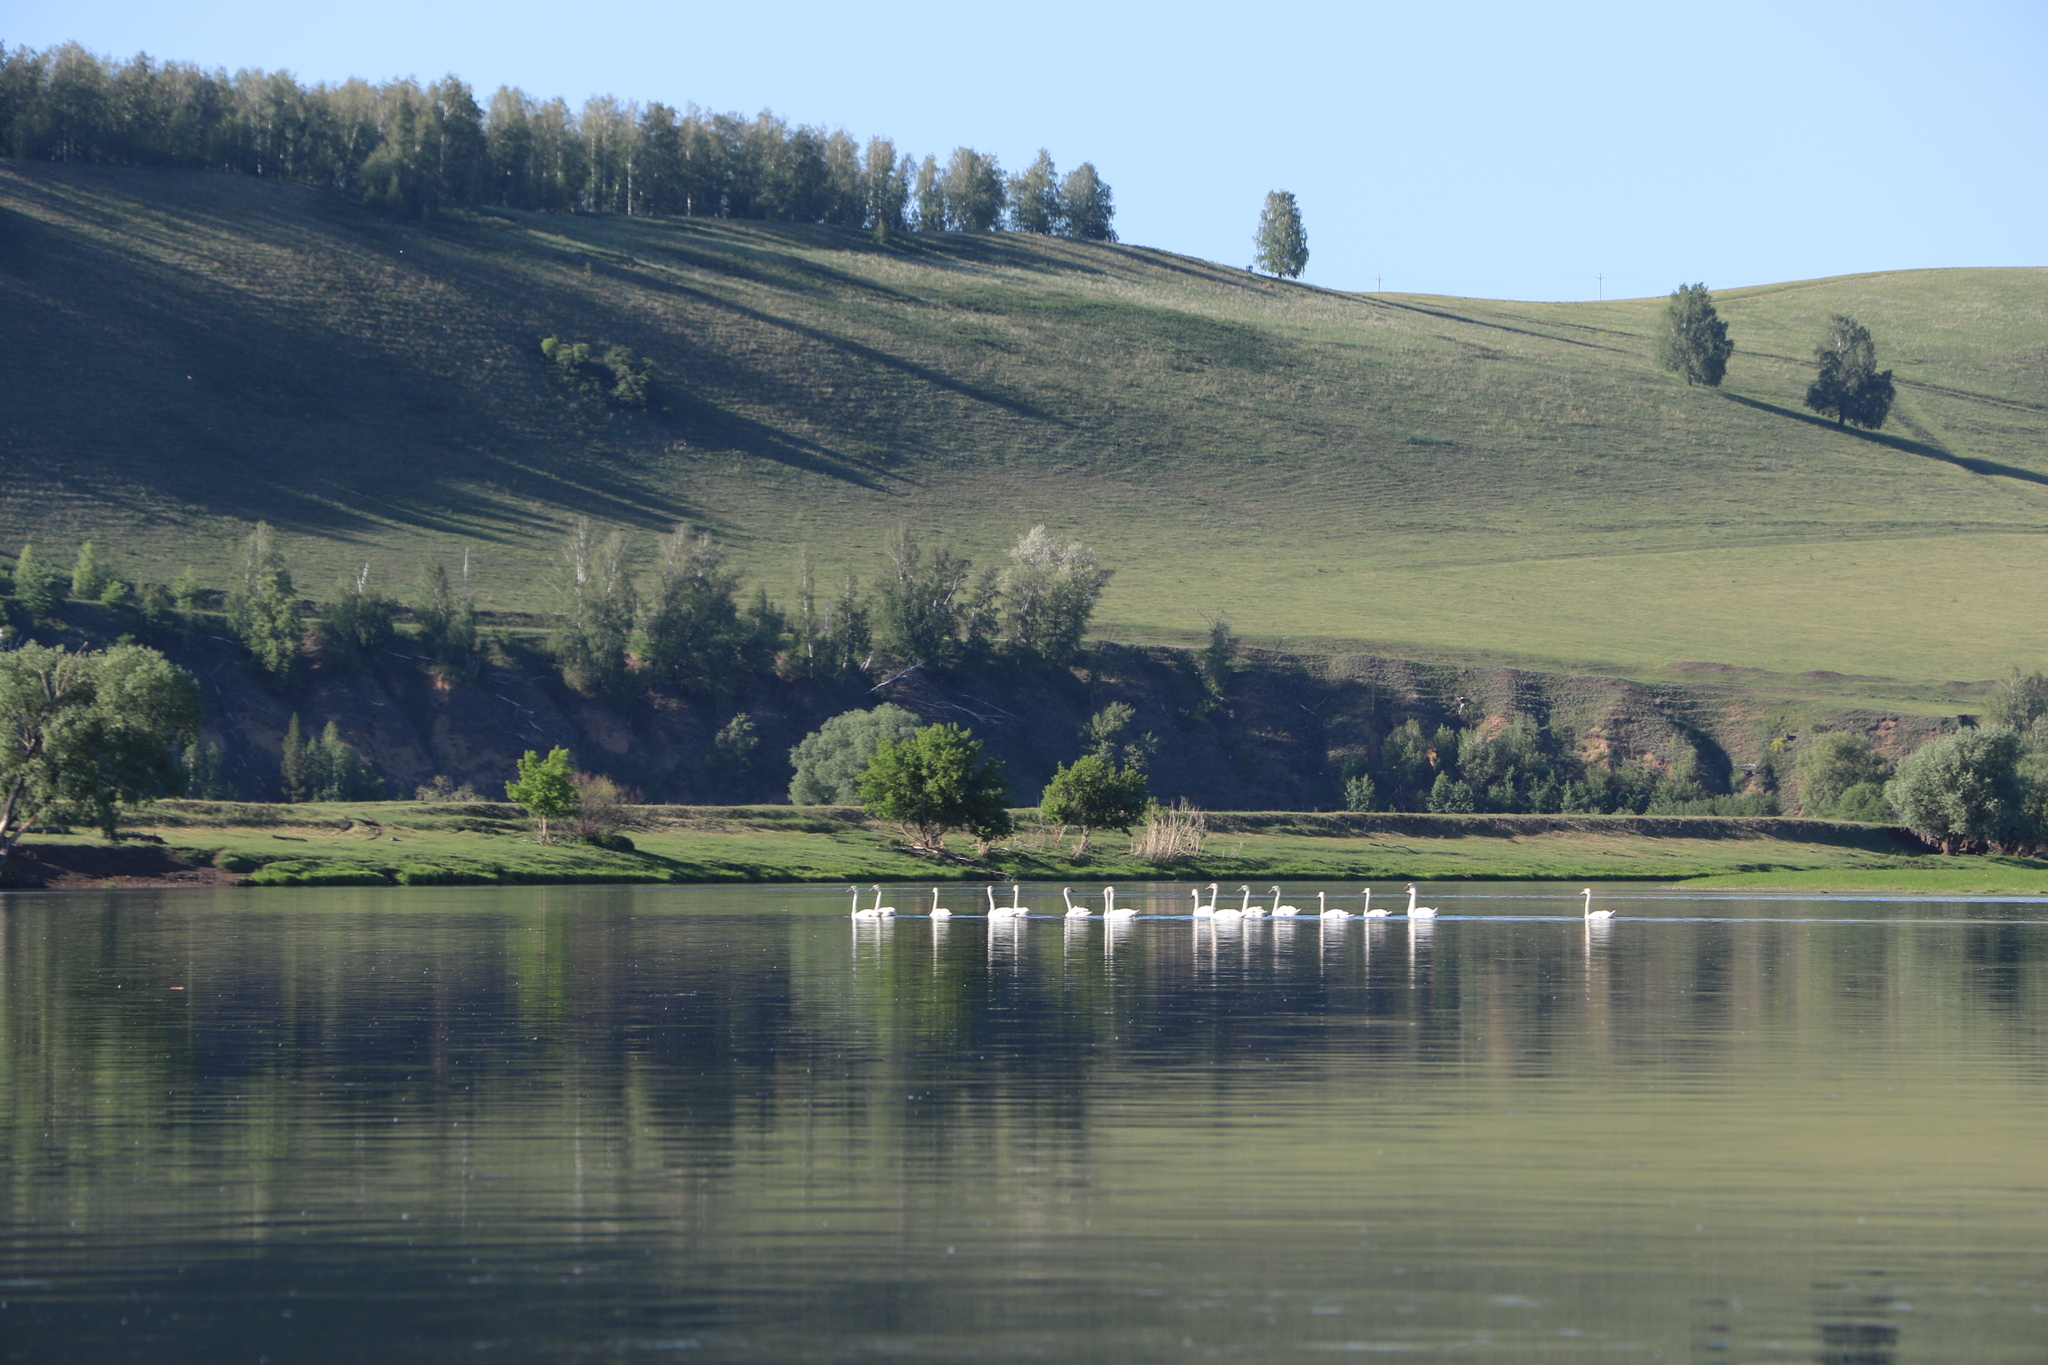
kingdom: Animalia
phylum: Chordata
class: Aves
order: Anseriformes
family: Anatidae
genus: Cygnus
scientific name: Cygnus olor
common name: Mute swan
